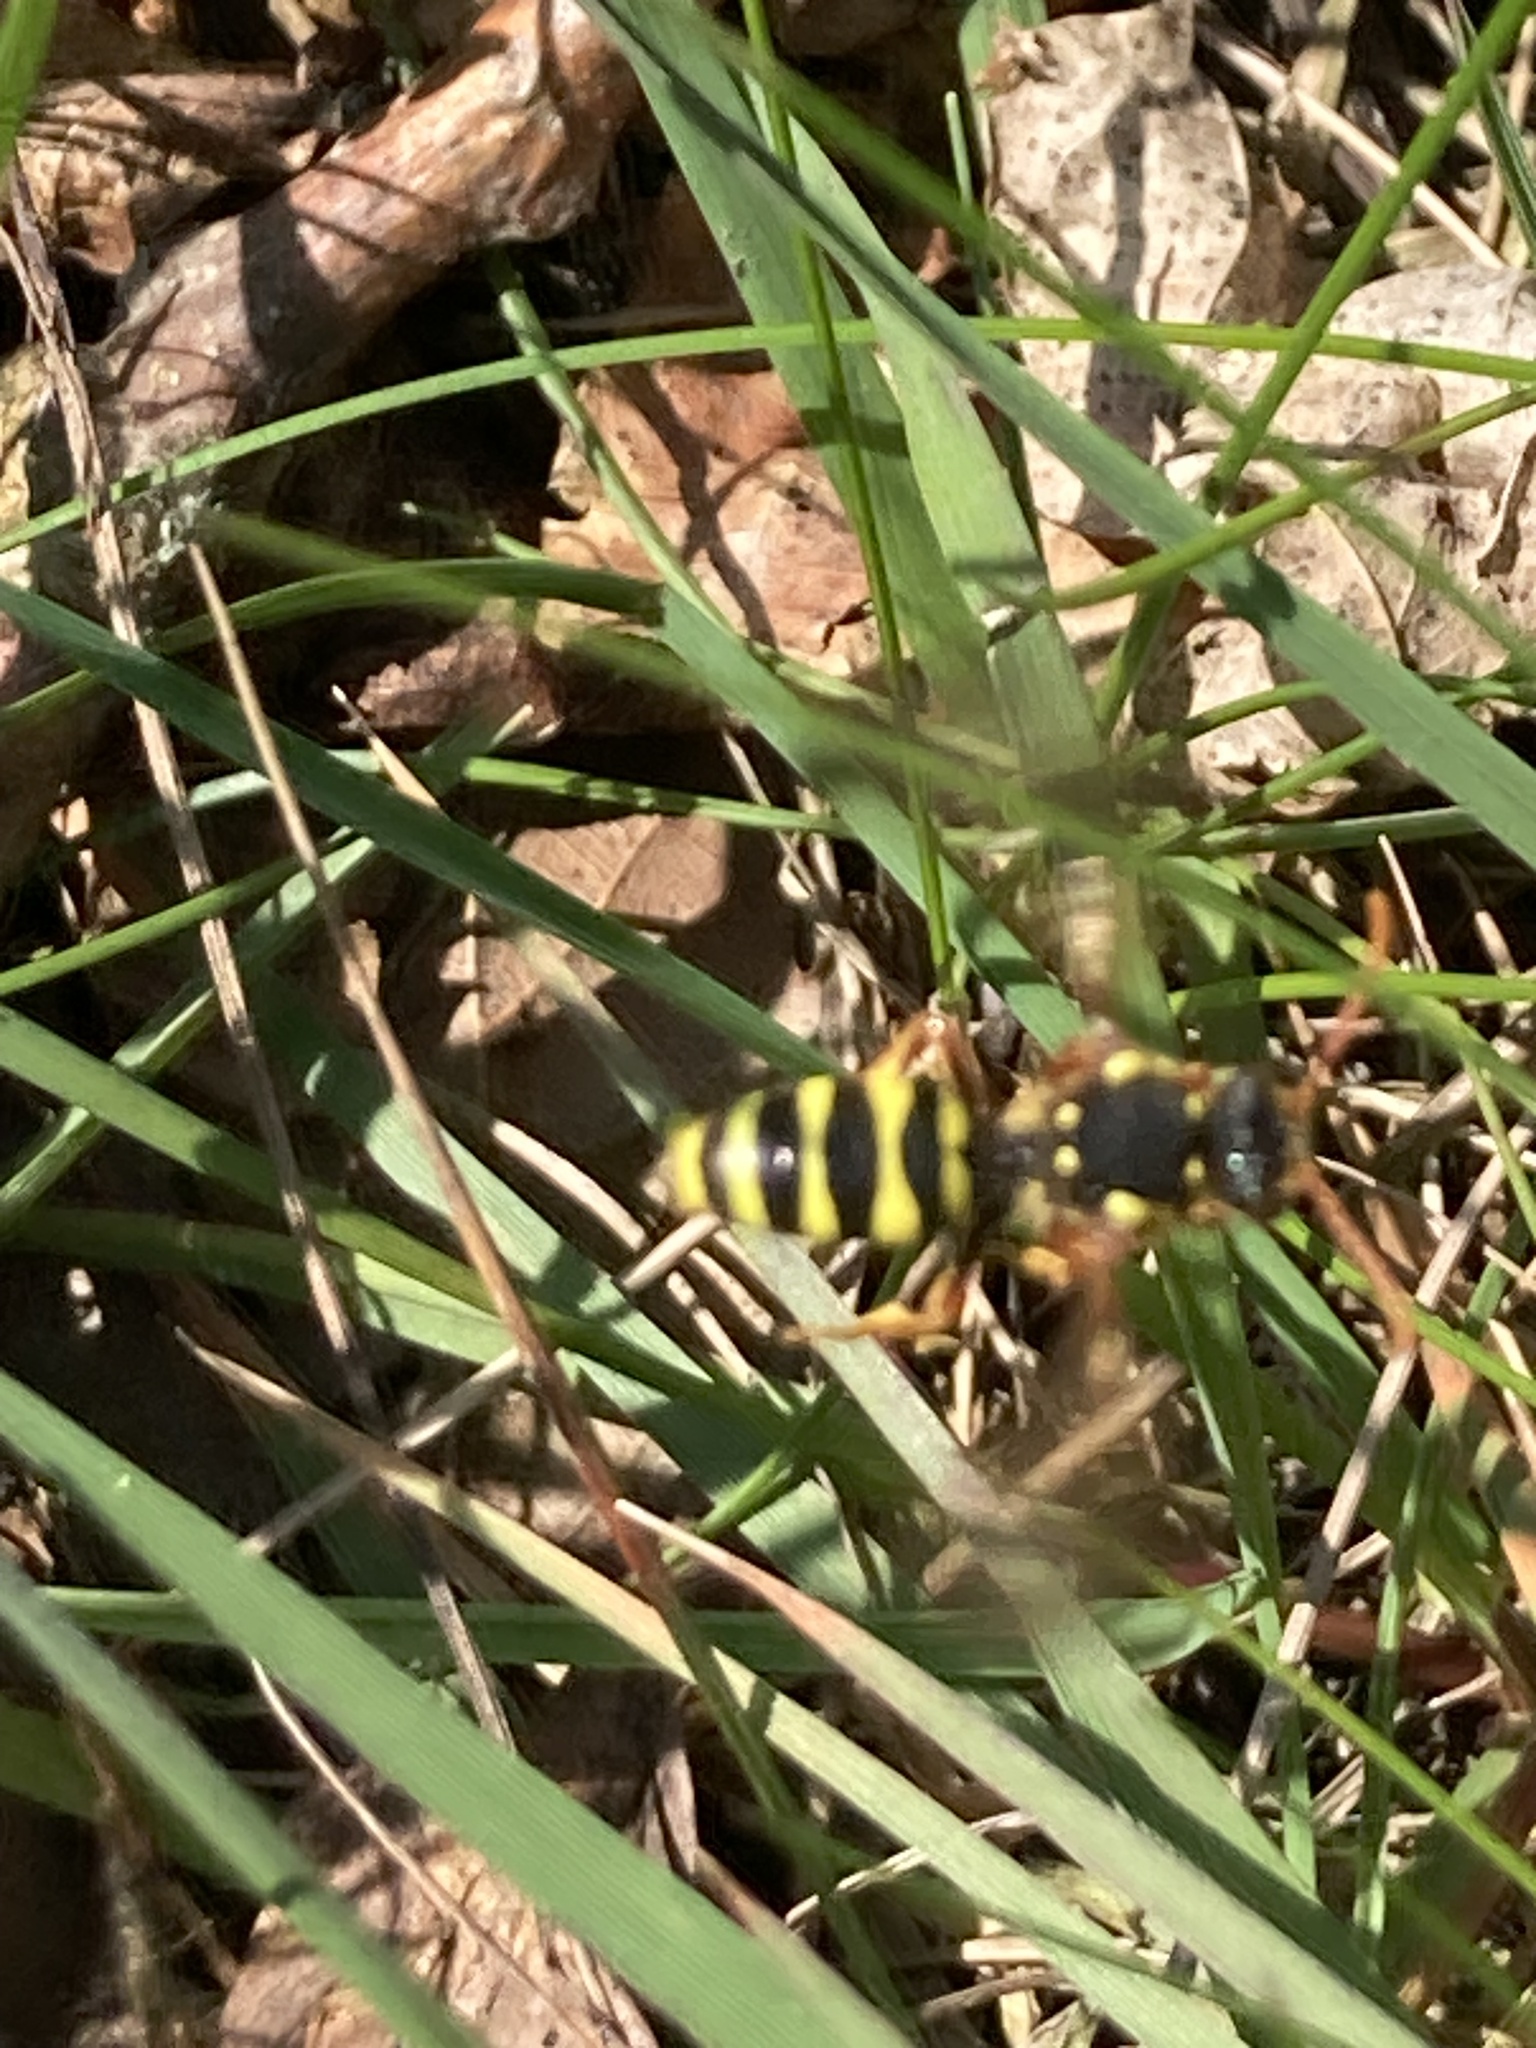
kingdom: Animalia
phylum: Arthropoda
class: Insecta
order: Hymenoptera
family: Apidae
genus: Nomada
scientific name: Nomada goodeniana
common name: Gooden's nomad bee
